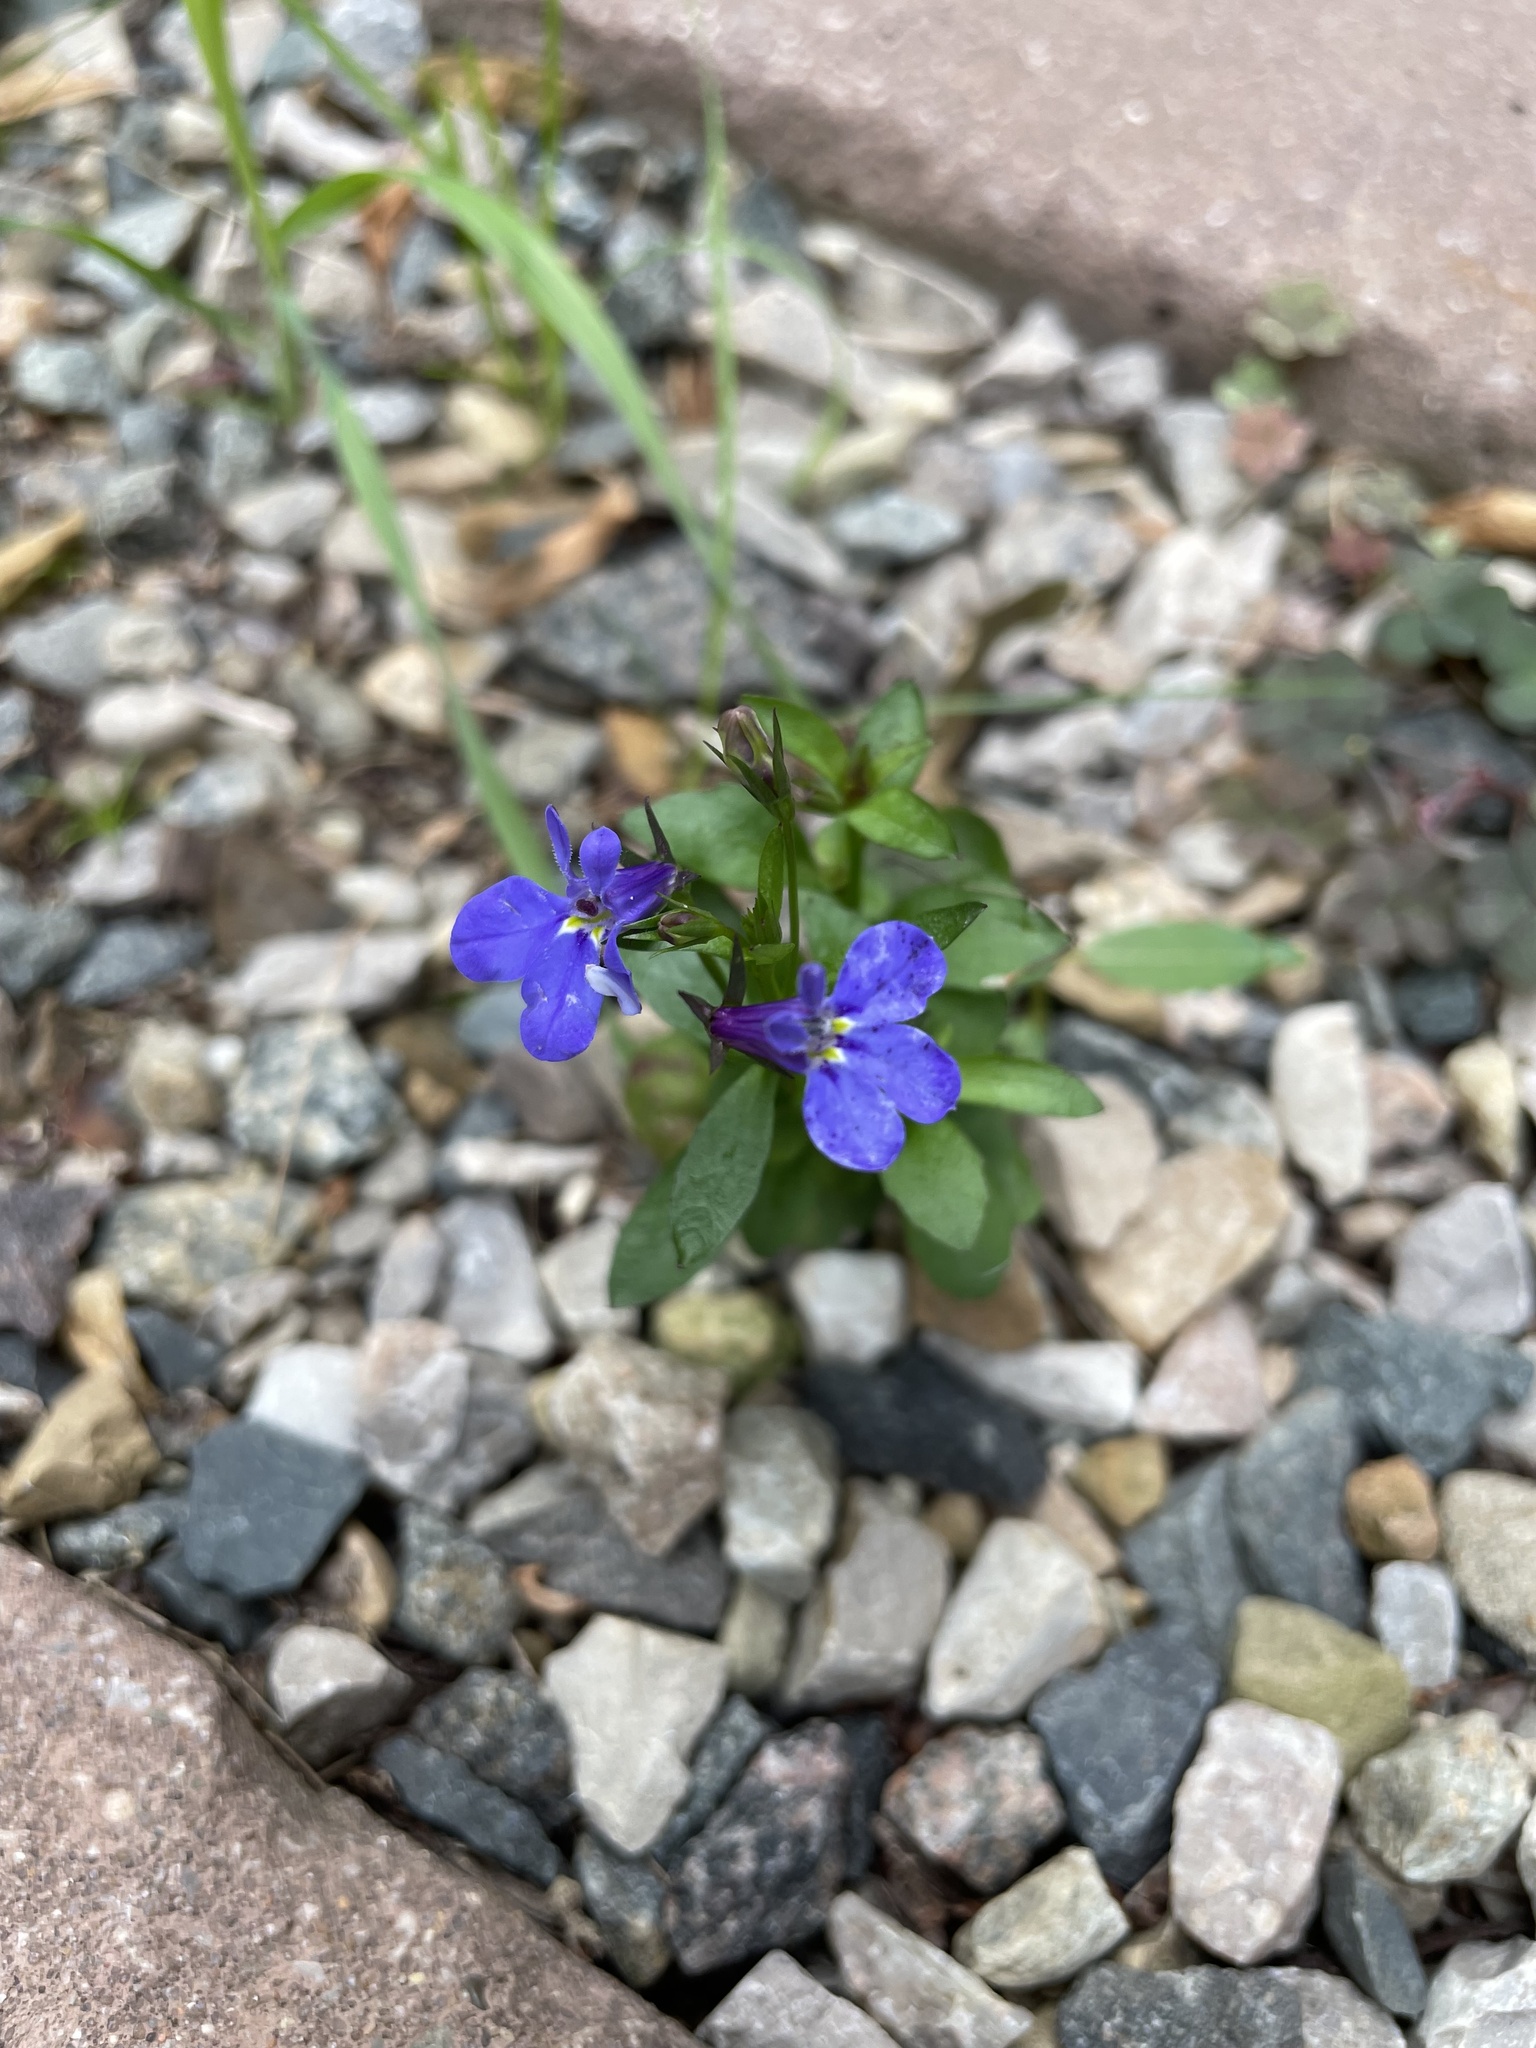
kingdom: Plantae
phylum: Tracheophyta
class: Magnoliopsida
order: Asterales
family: Campanulaceae
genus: Lobelia
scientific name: Lobelia erinus
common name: Edging lobelia
